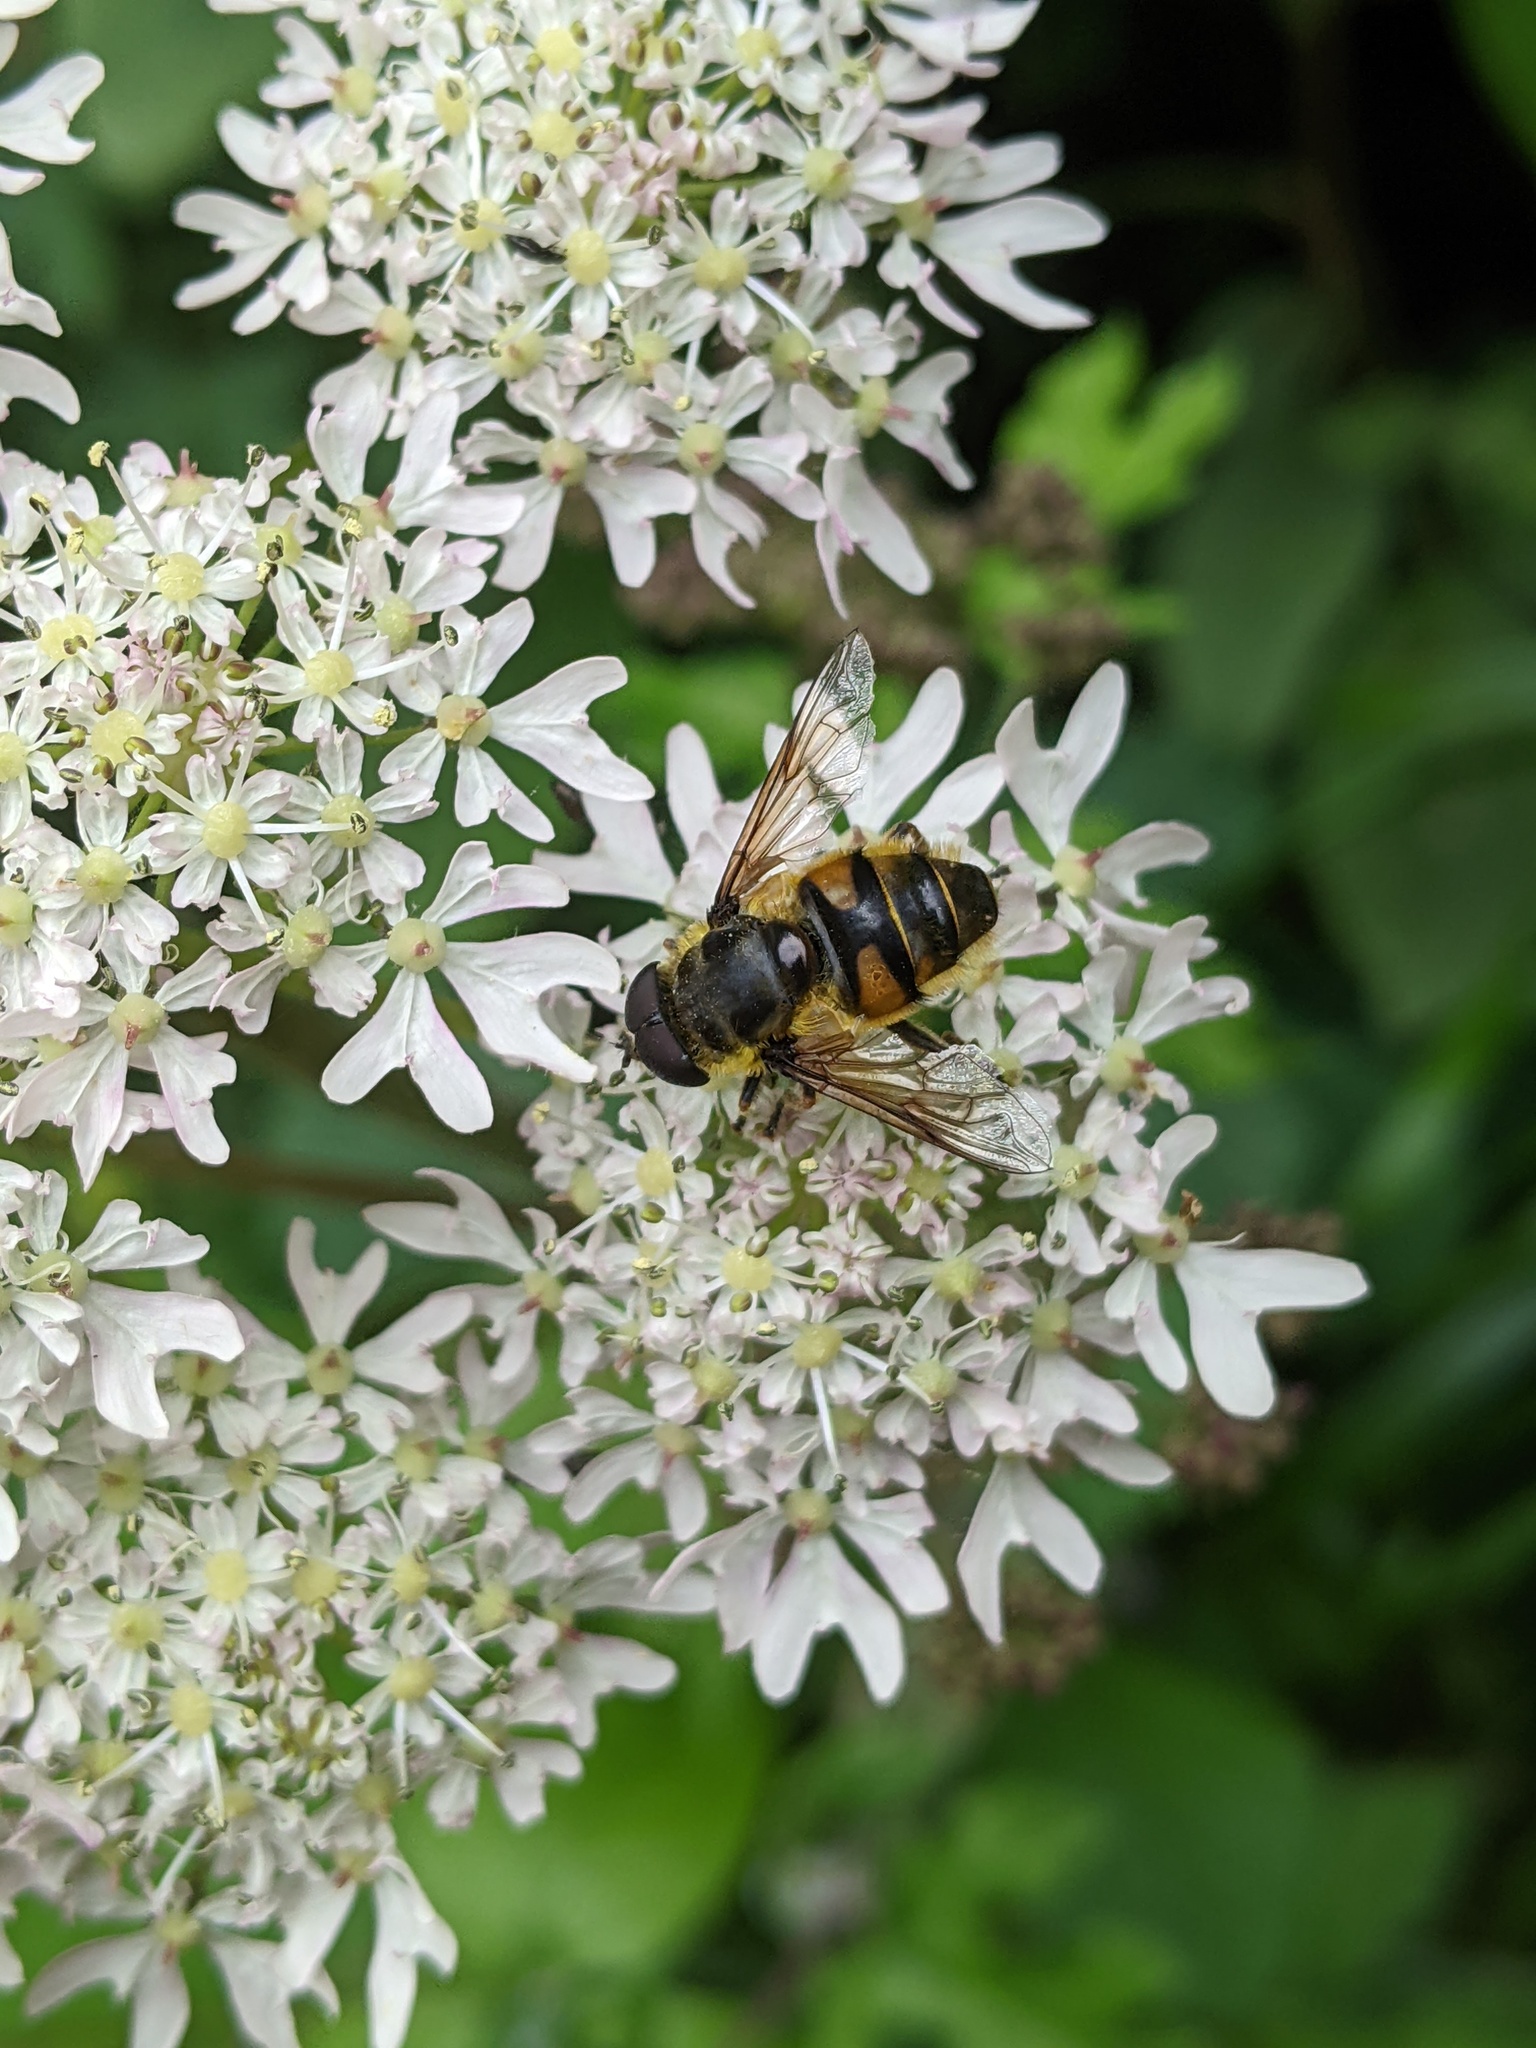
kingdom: Animalia
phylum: Arthropoda
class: Insecta
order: Diptera
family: Syrphidae
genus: Myathropa
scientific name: Myathropa florea
